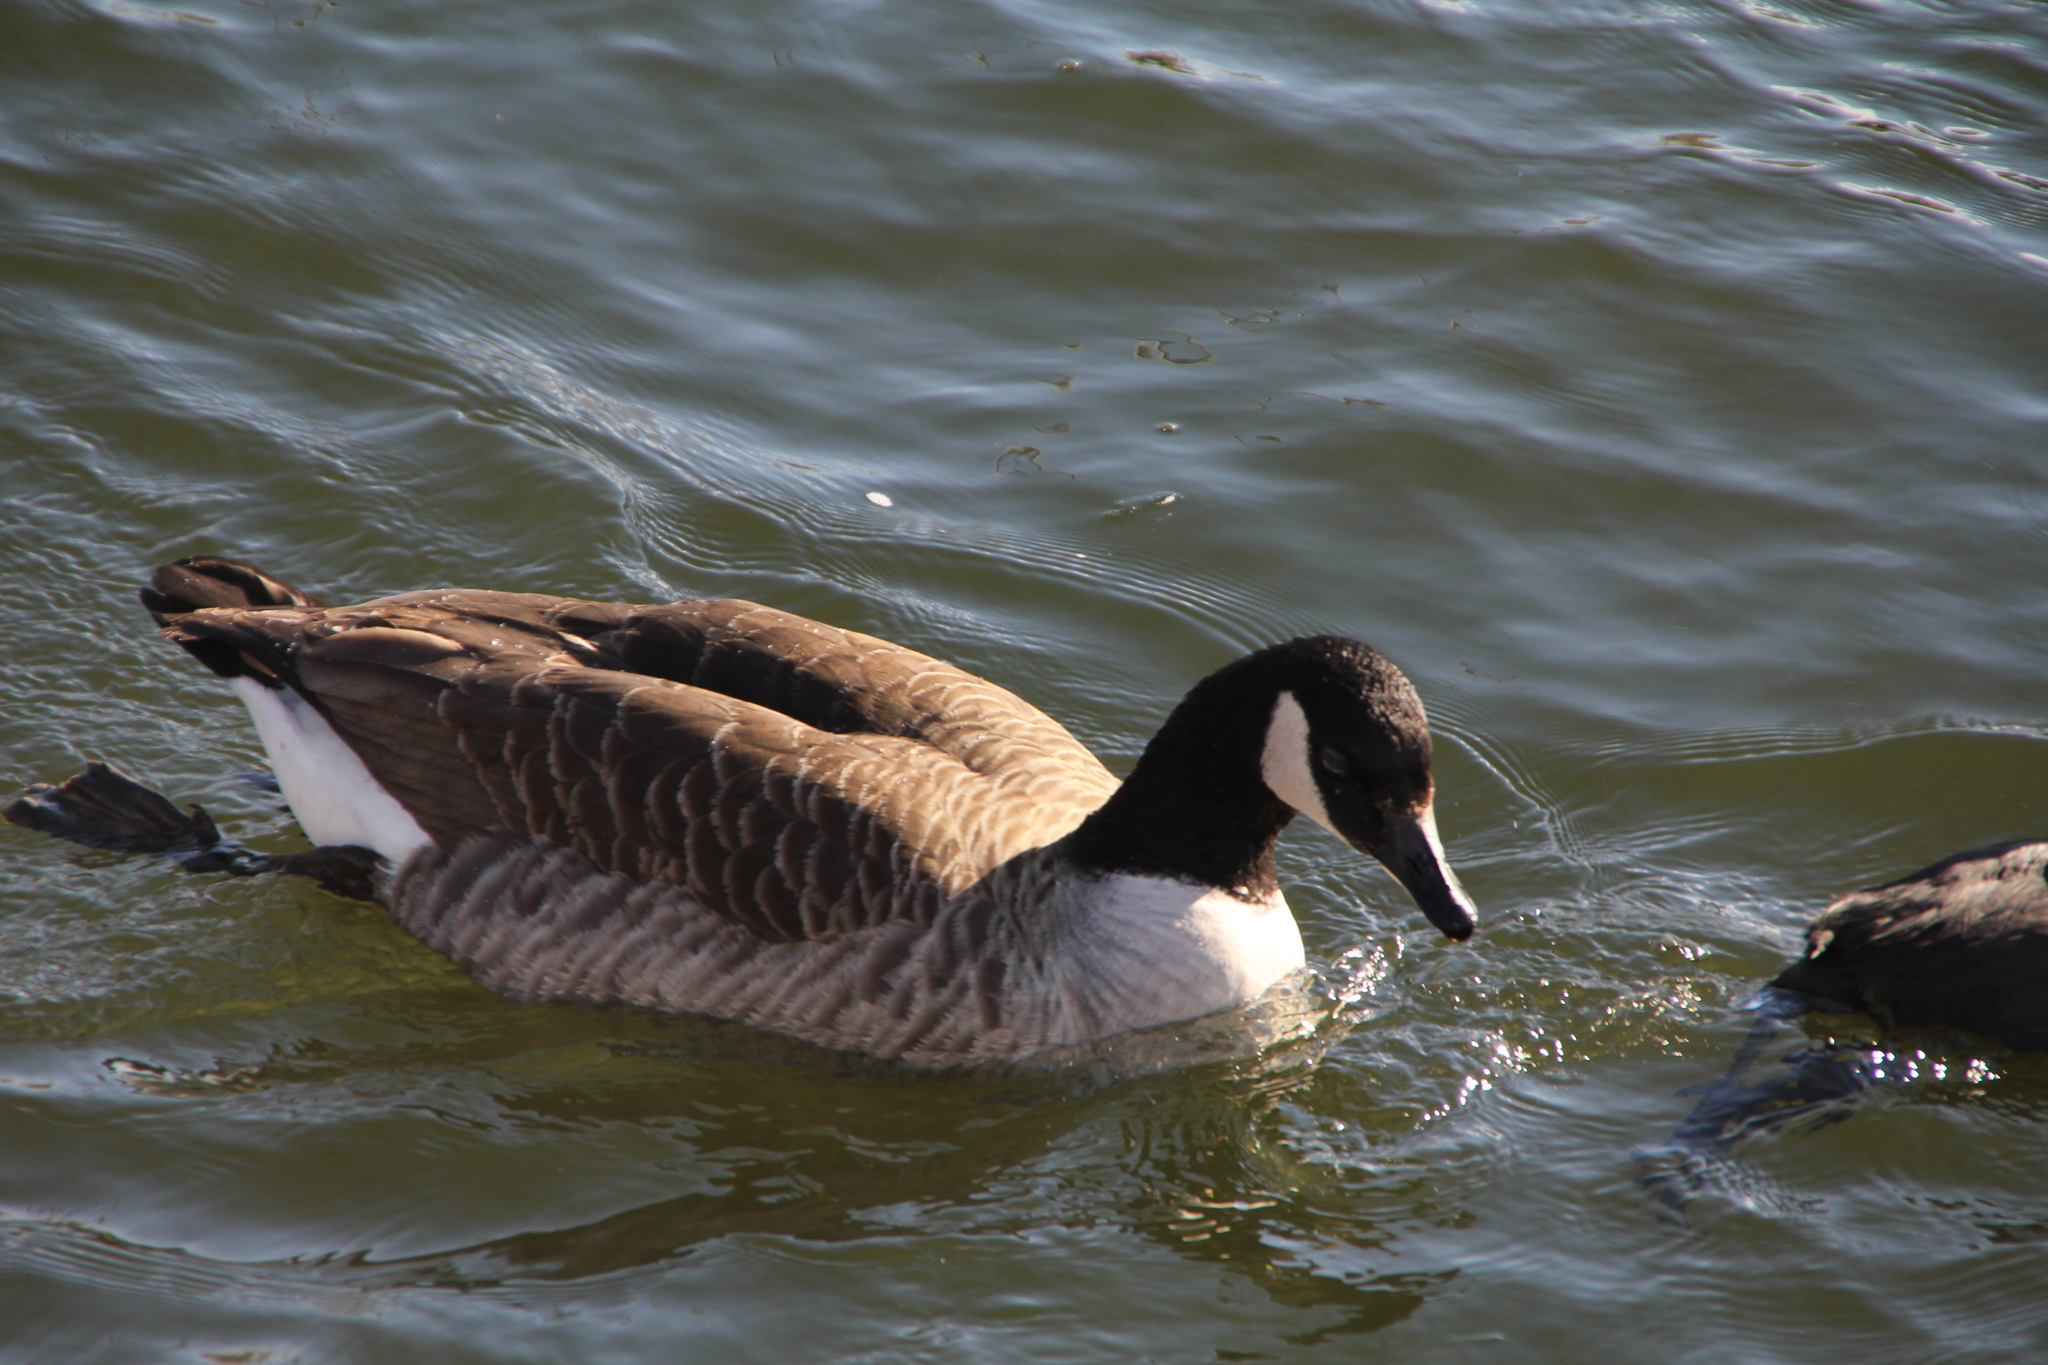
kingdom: Animalia
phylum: Chordata
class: Aves
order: Anseriformes
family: Anatidae
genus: Branta
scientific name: Branta canadensis
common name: Canada goose
